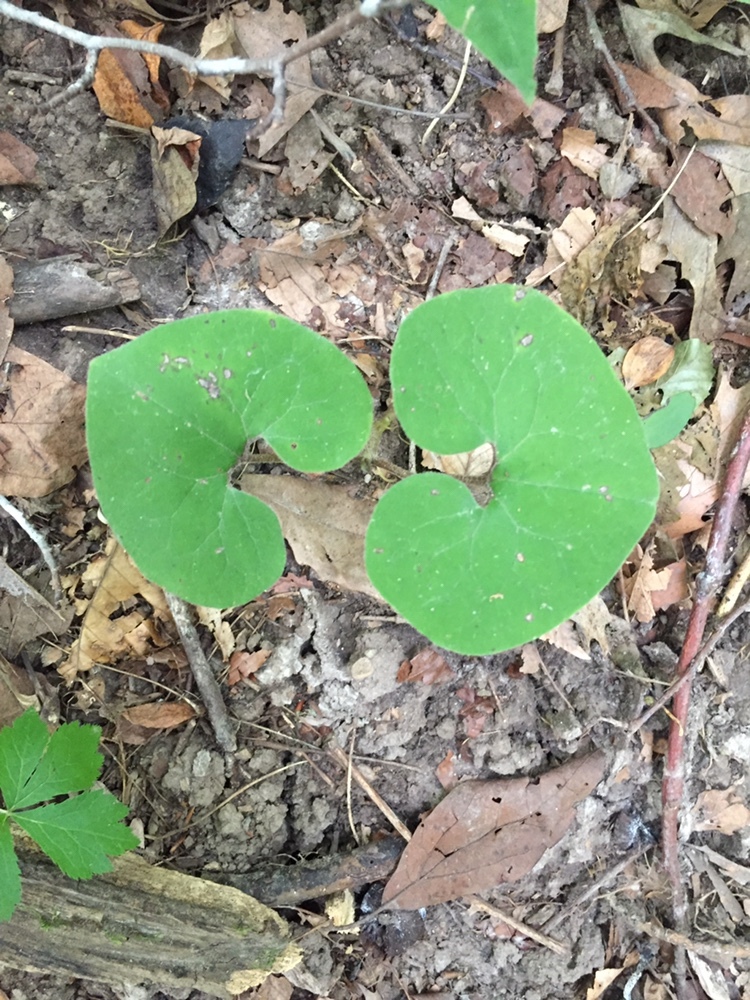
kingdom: Plantae
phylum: Tracheophyta
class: Magnoliopsida
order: Piperales
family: Aristolochiaceae
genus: Asarum
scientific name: Asarum canadense
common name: Wild ginger
